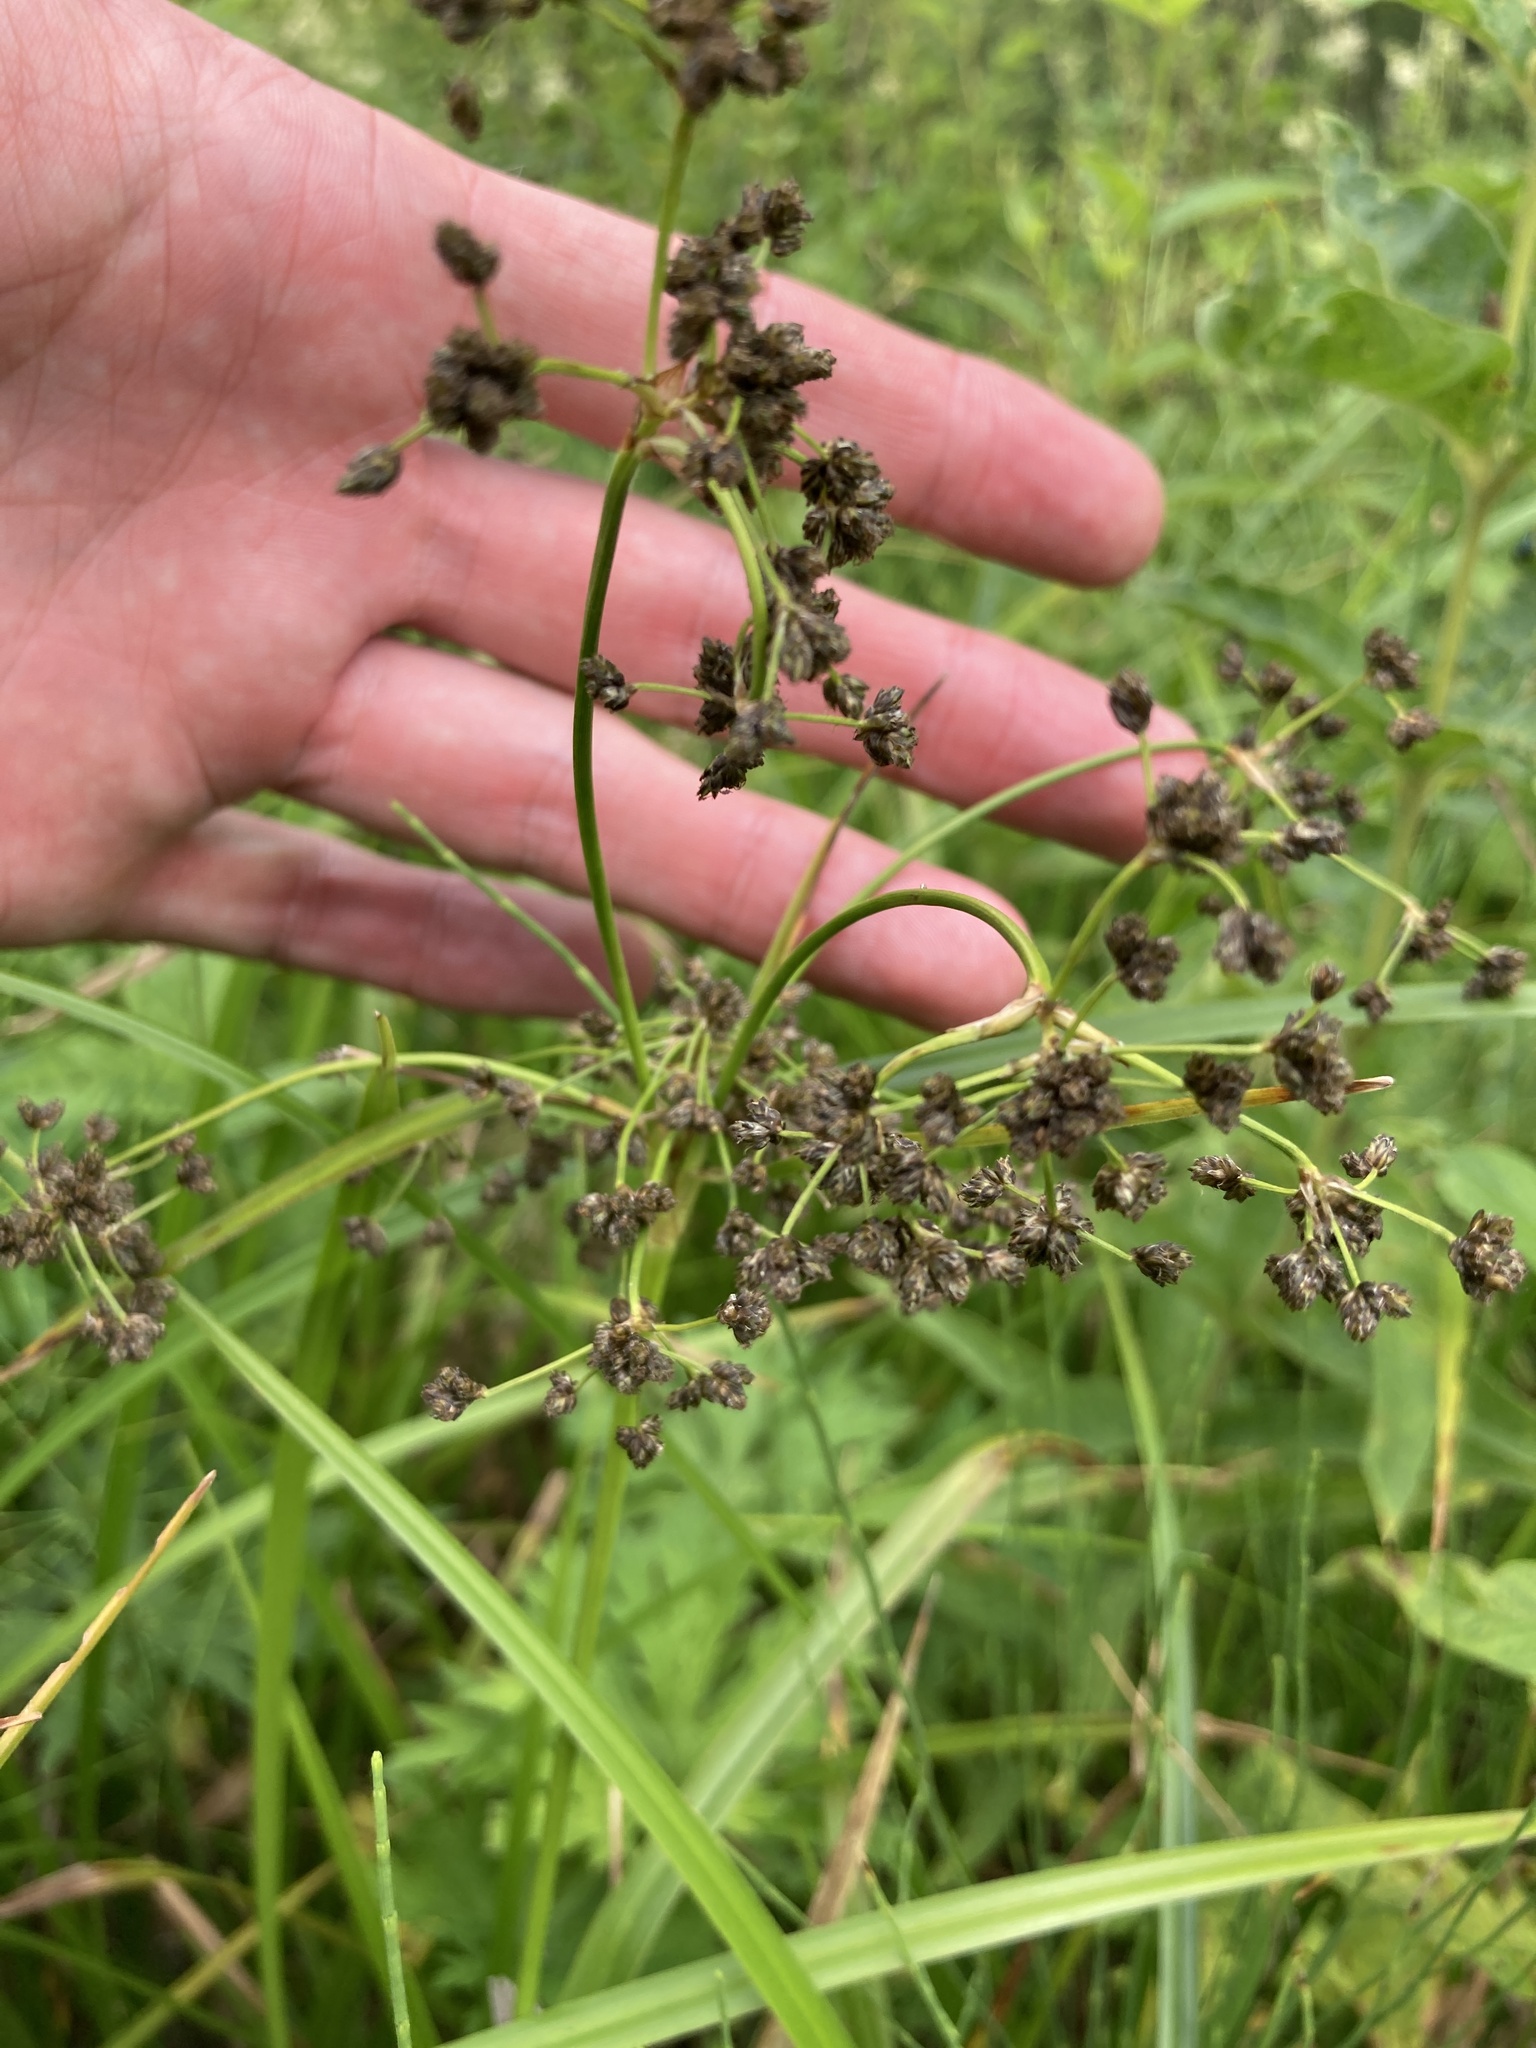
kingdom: Plantae
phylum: Tracheophyta
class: Liliopsida
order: Poales
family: Cyperaceae
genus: Scirpus
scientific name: Scirpus sylvaticus
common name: Wood club-rush
